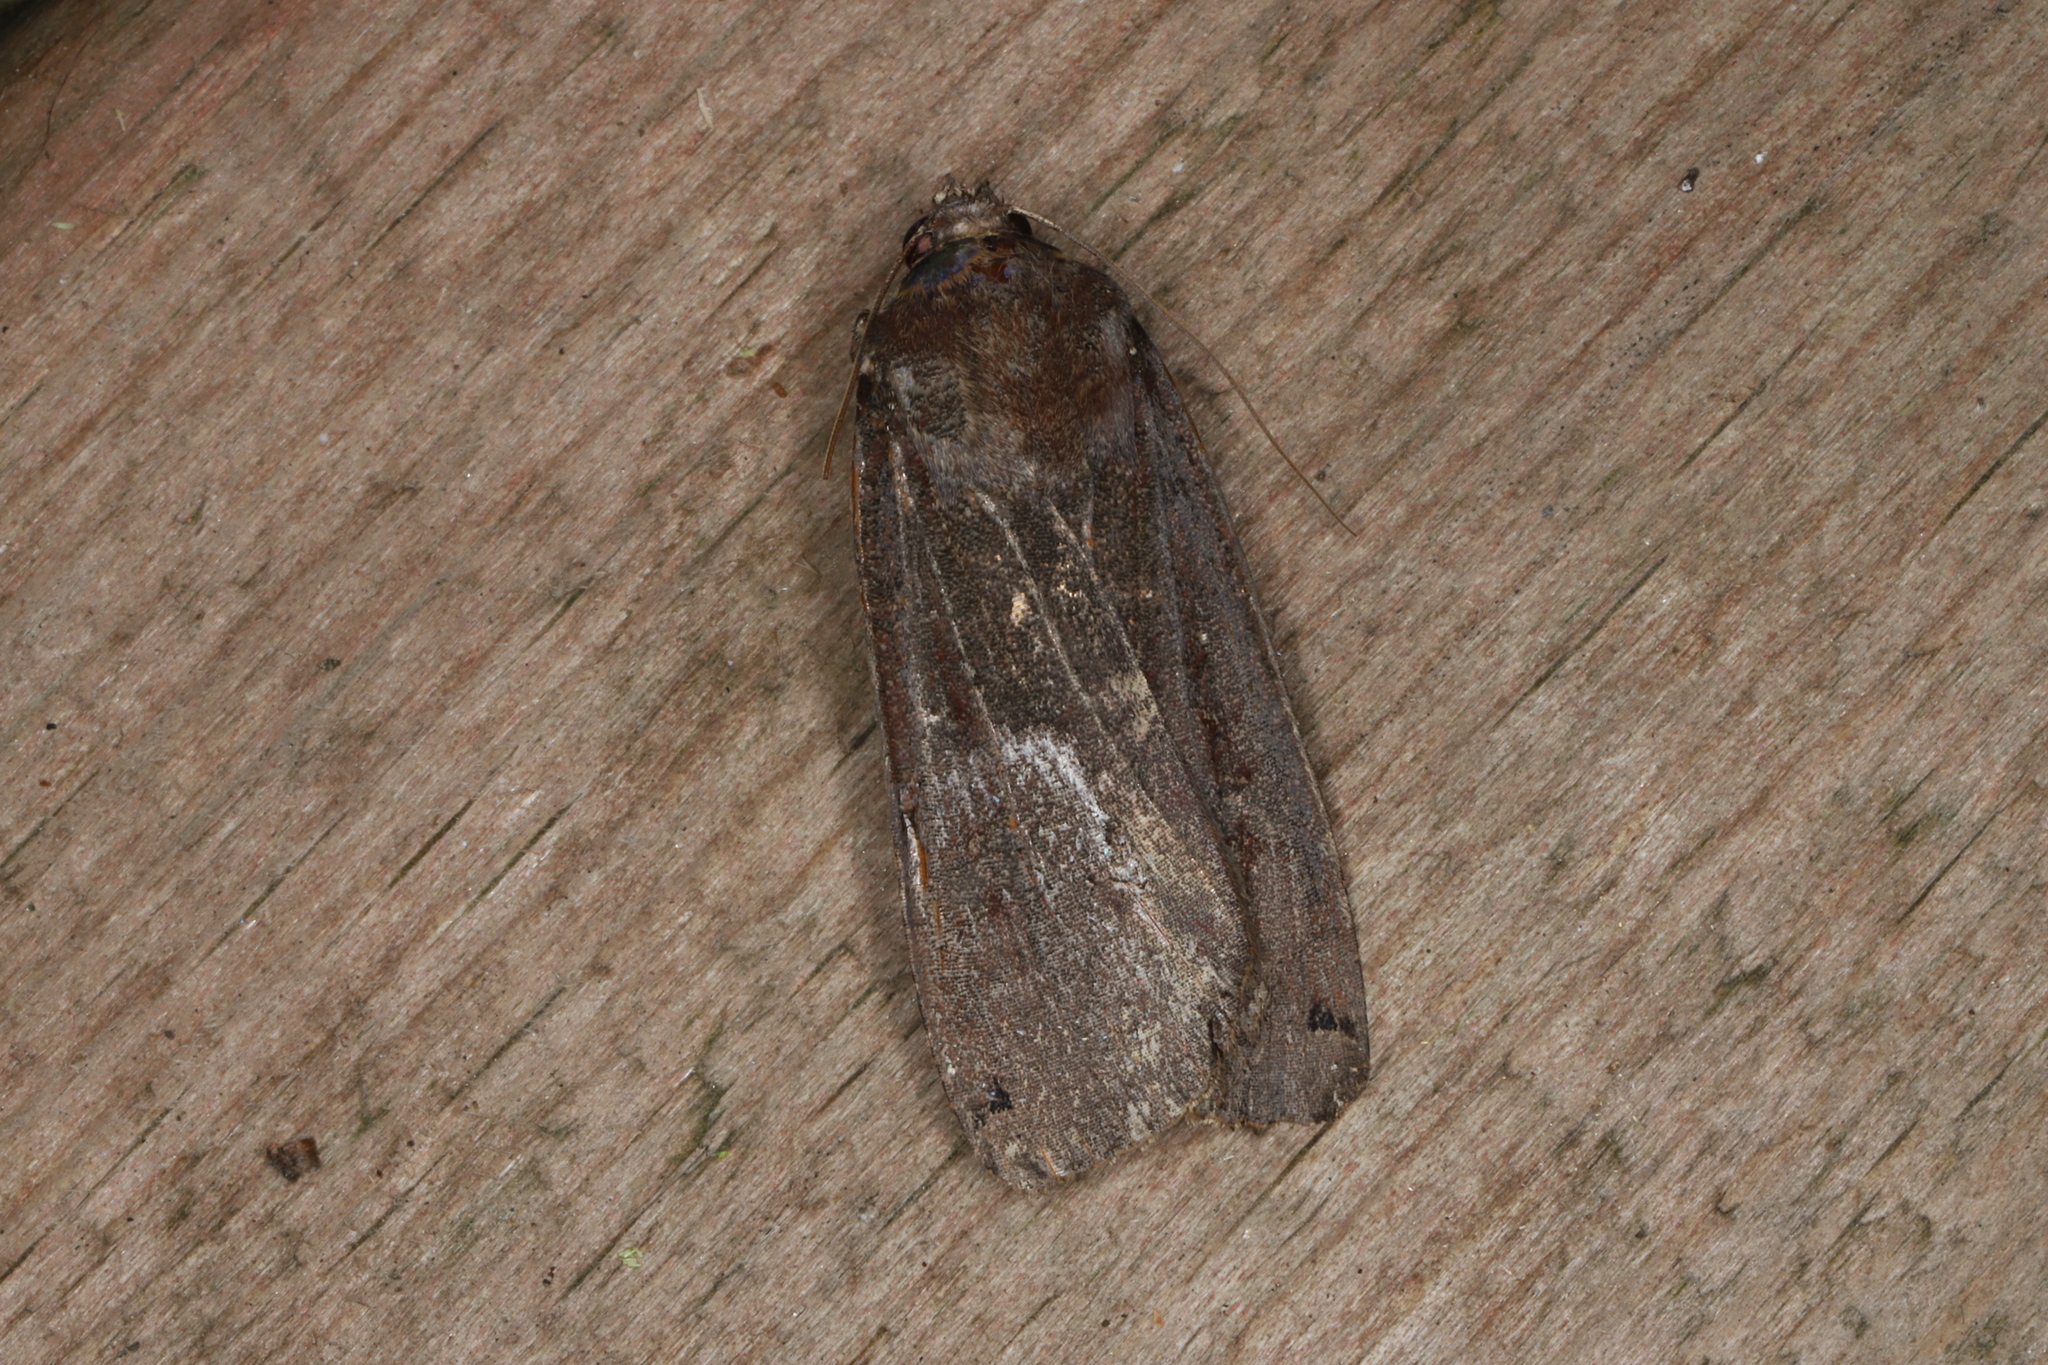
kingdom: Animalia
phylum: Arthropoda
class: Insecta
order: Lepidoptera
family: Noctuidae
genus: Noctua
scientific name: Noctua pronuba
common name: Large yellow underwing
